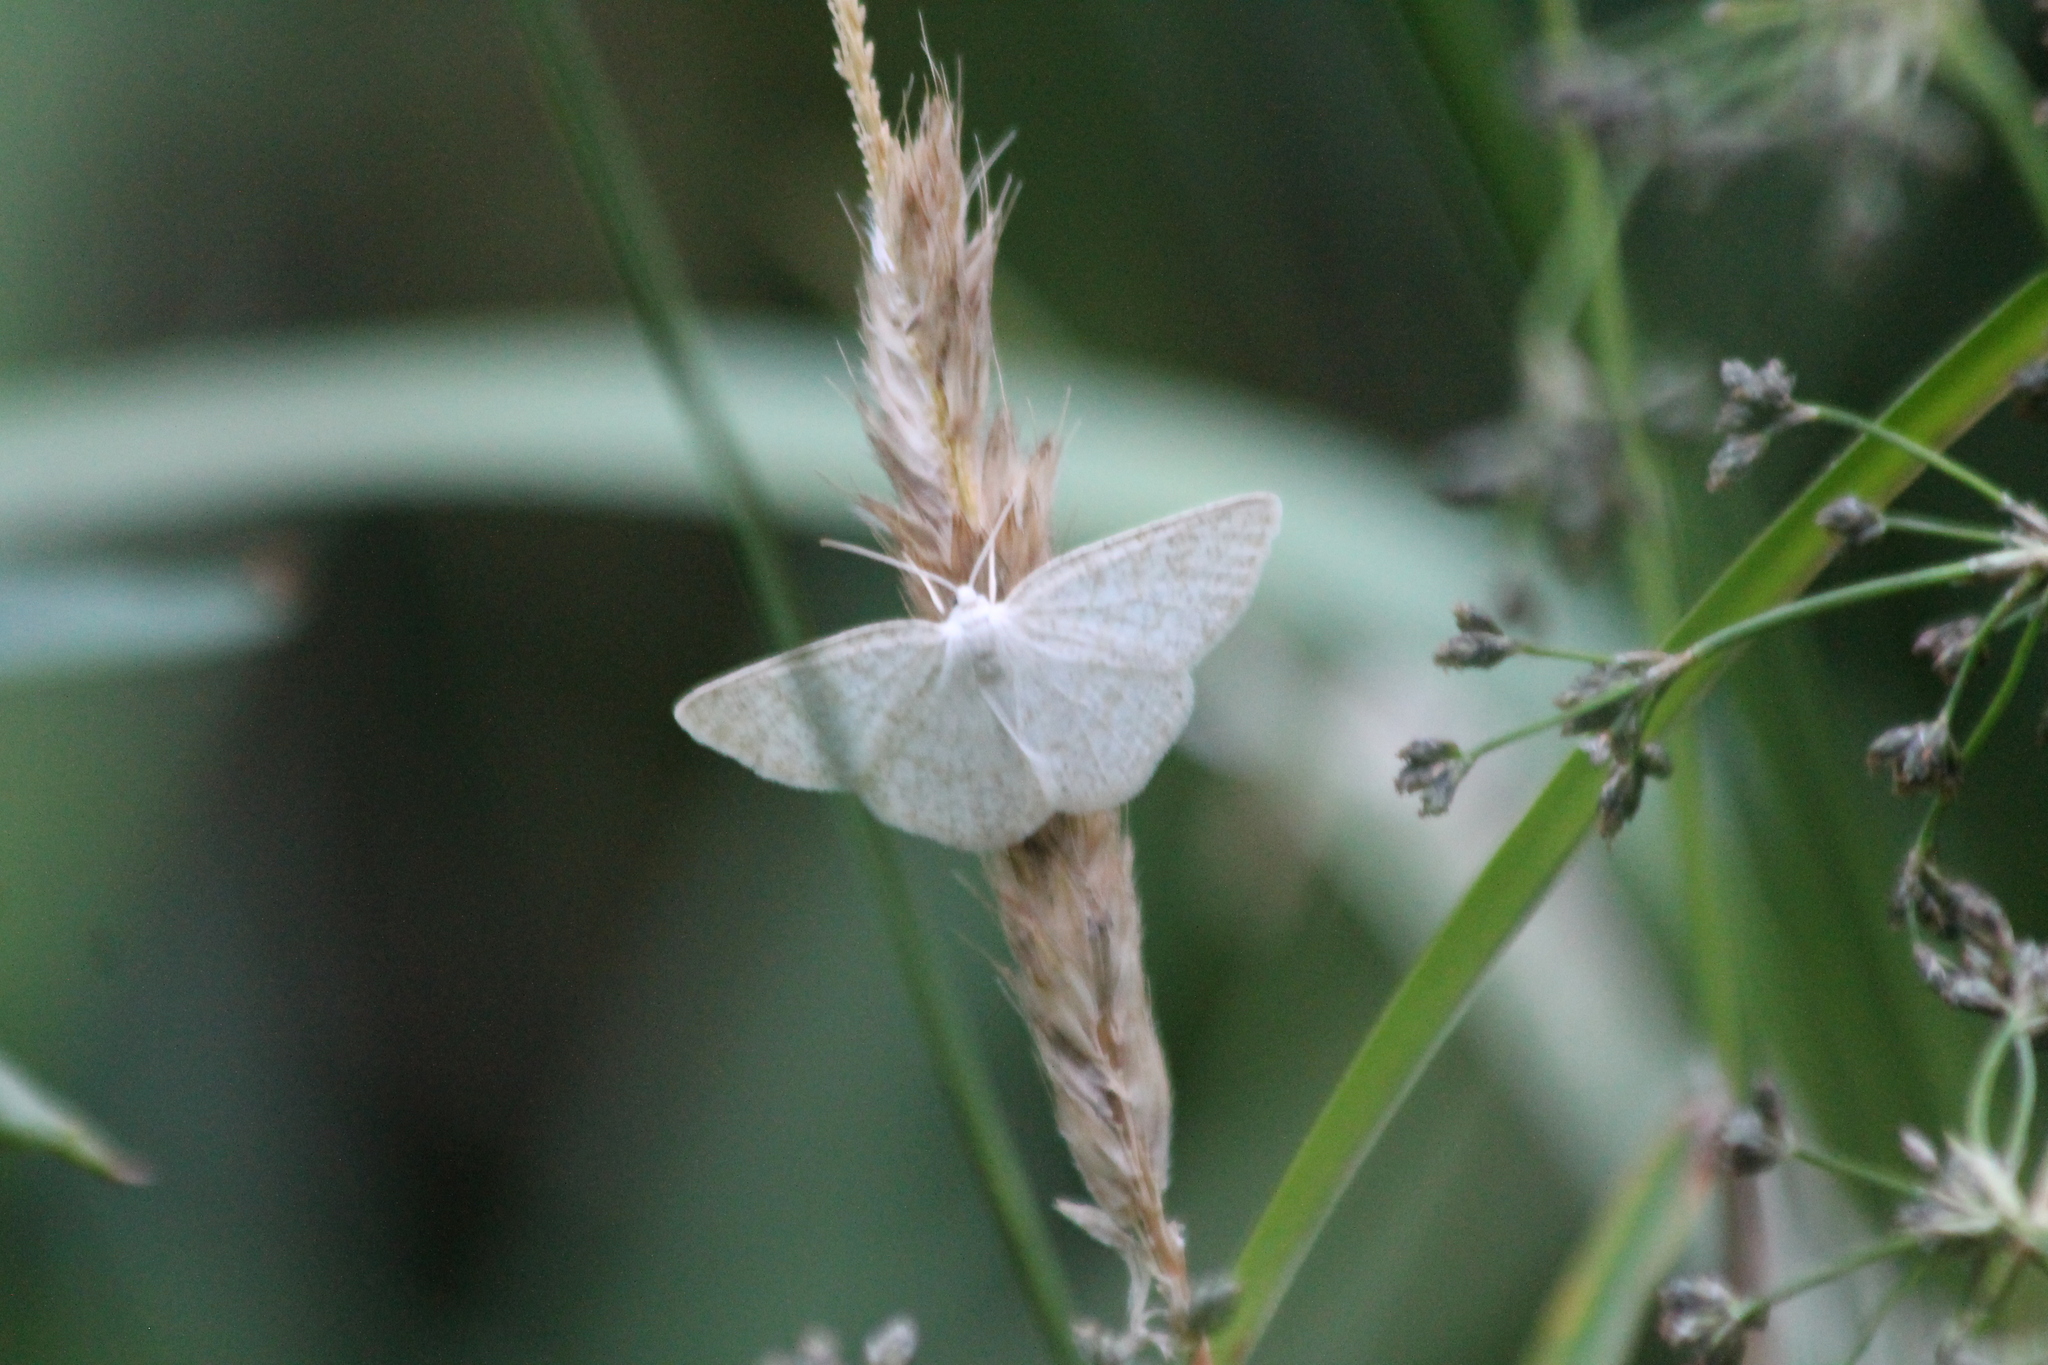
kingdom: Animalia
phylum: Arthropoda
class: Insecta
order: Lepidoptera
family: Geometridae
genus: Cabera
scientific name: Cabera exanthemata
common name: Common wave
